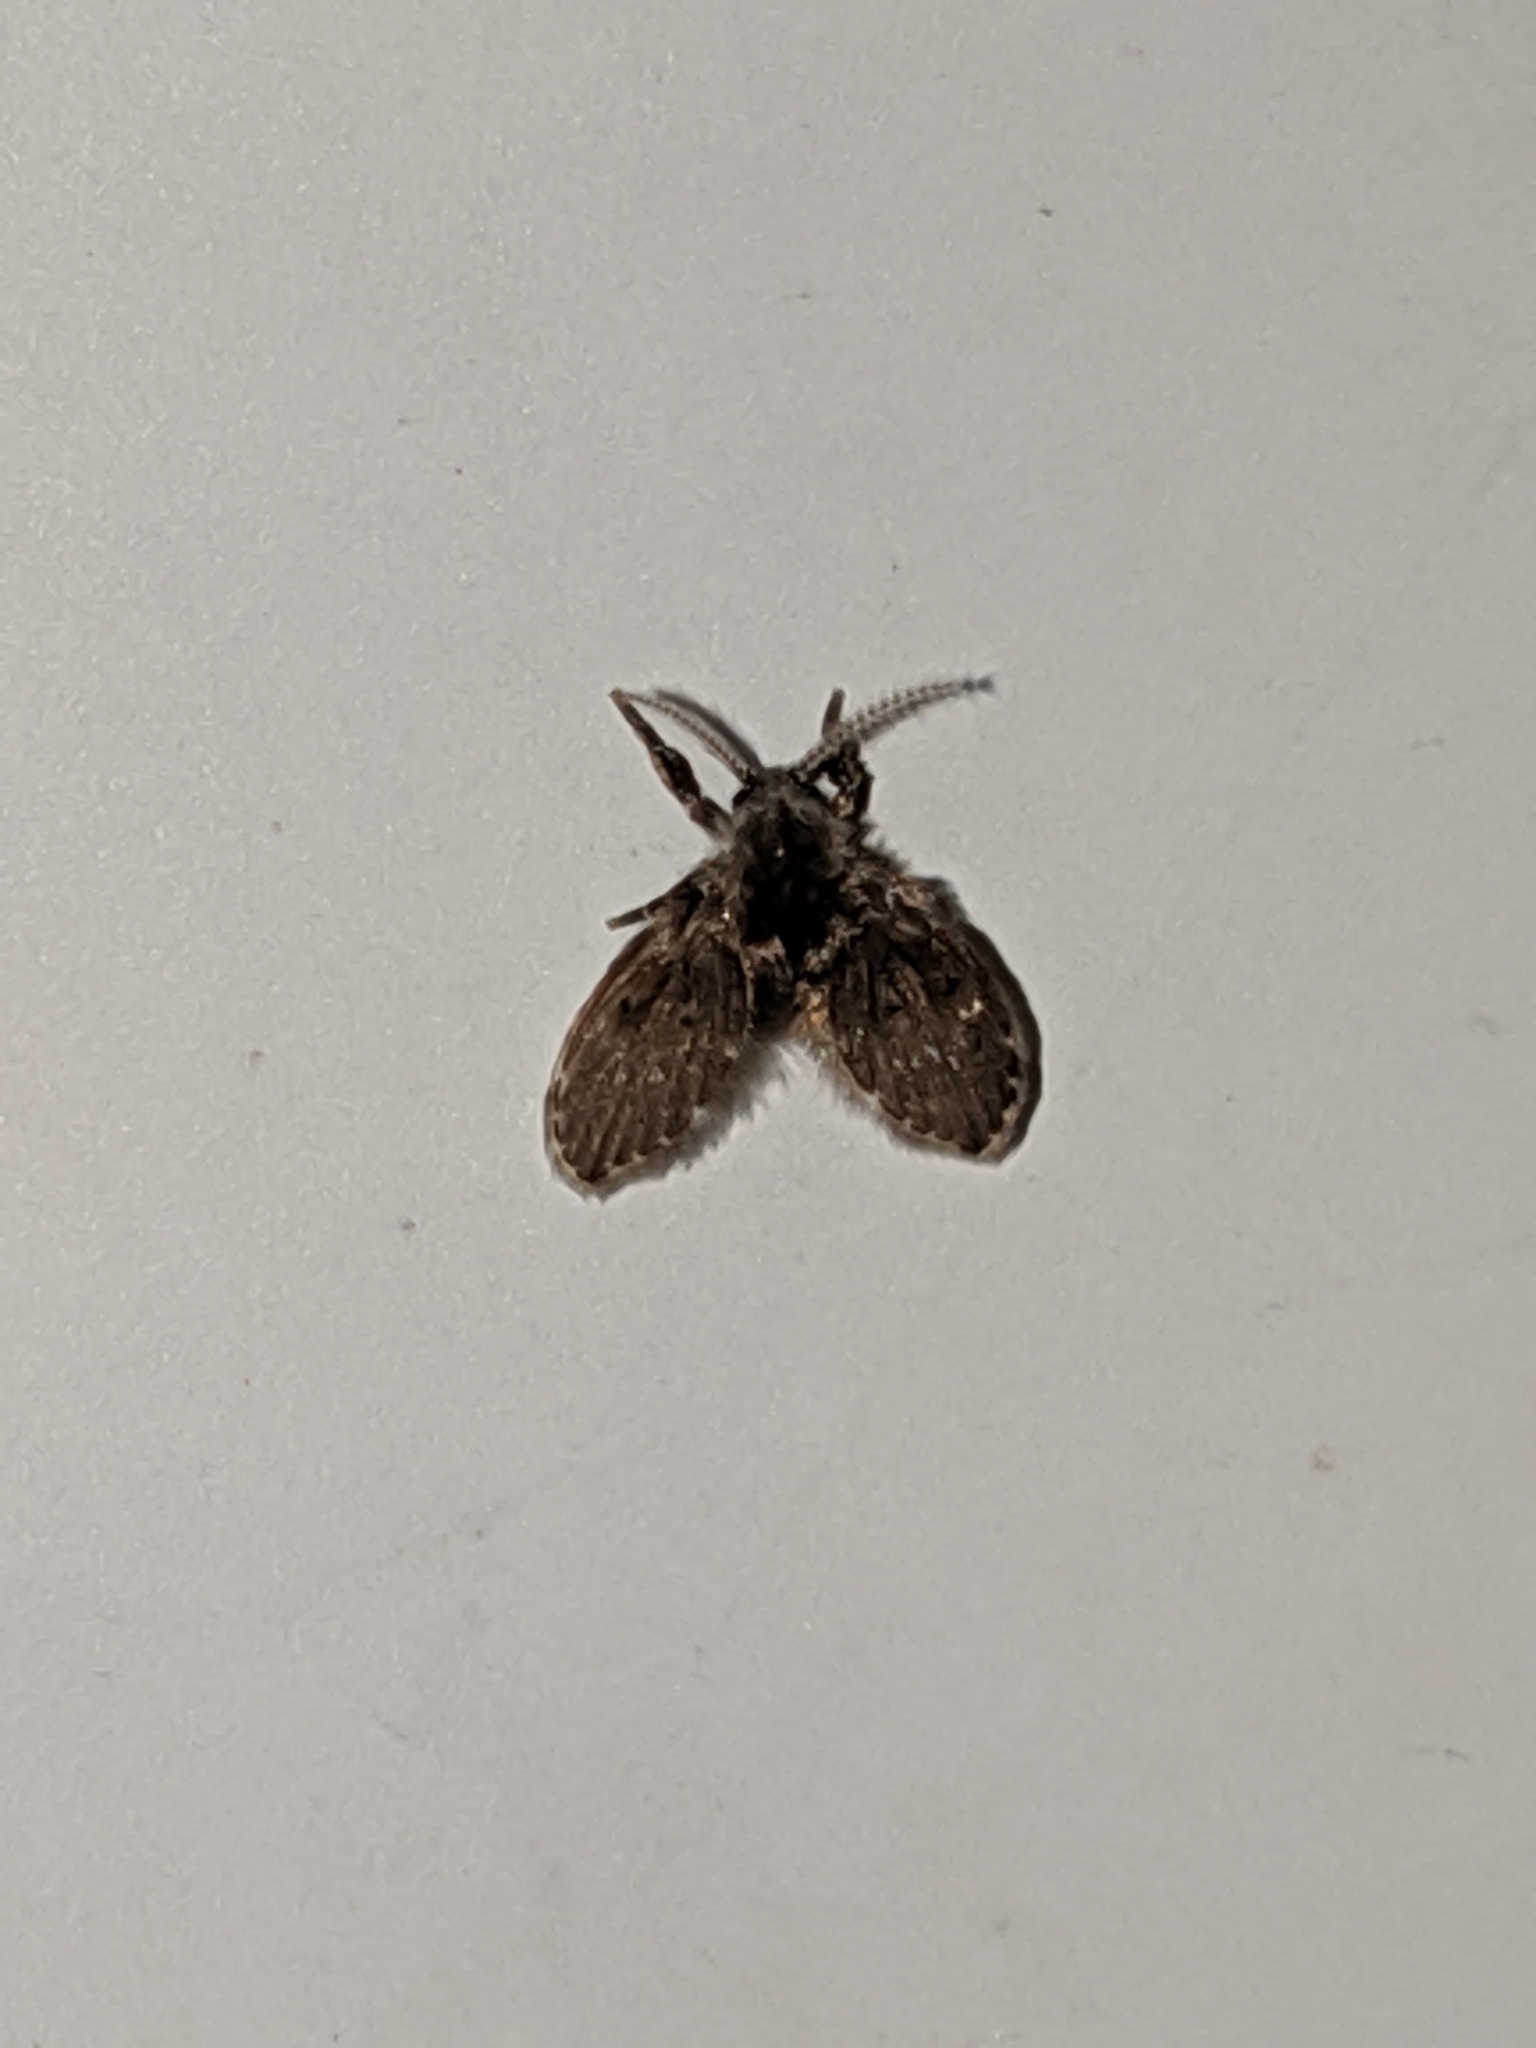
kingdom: Animalia
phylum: Arthropoda
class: Insecta
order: Diptera
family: Psychodidae
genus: Clogmia
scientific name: Clogmia albipunctatus
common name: White-spotted moth fly
